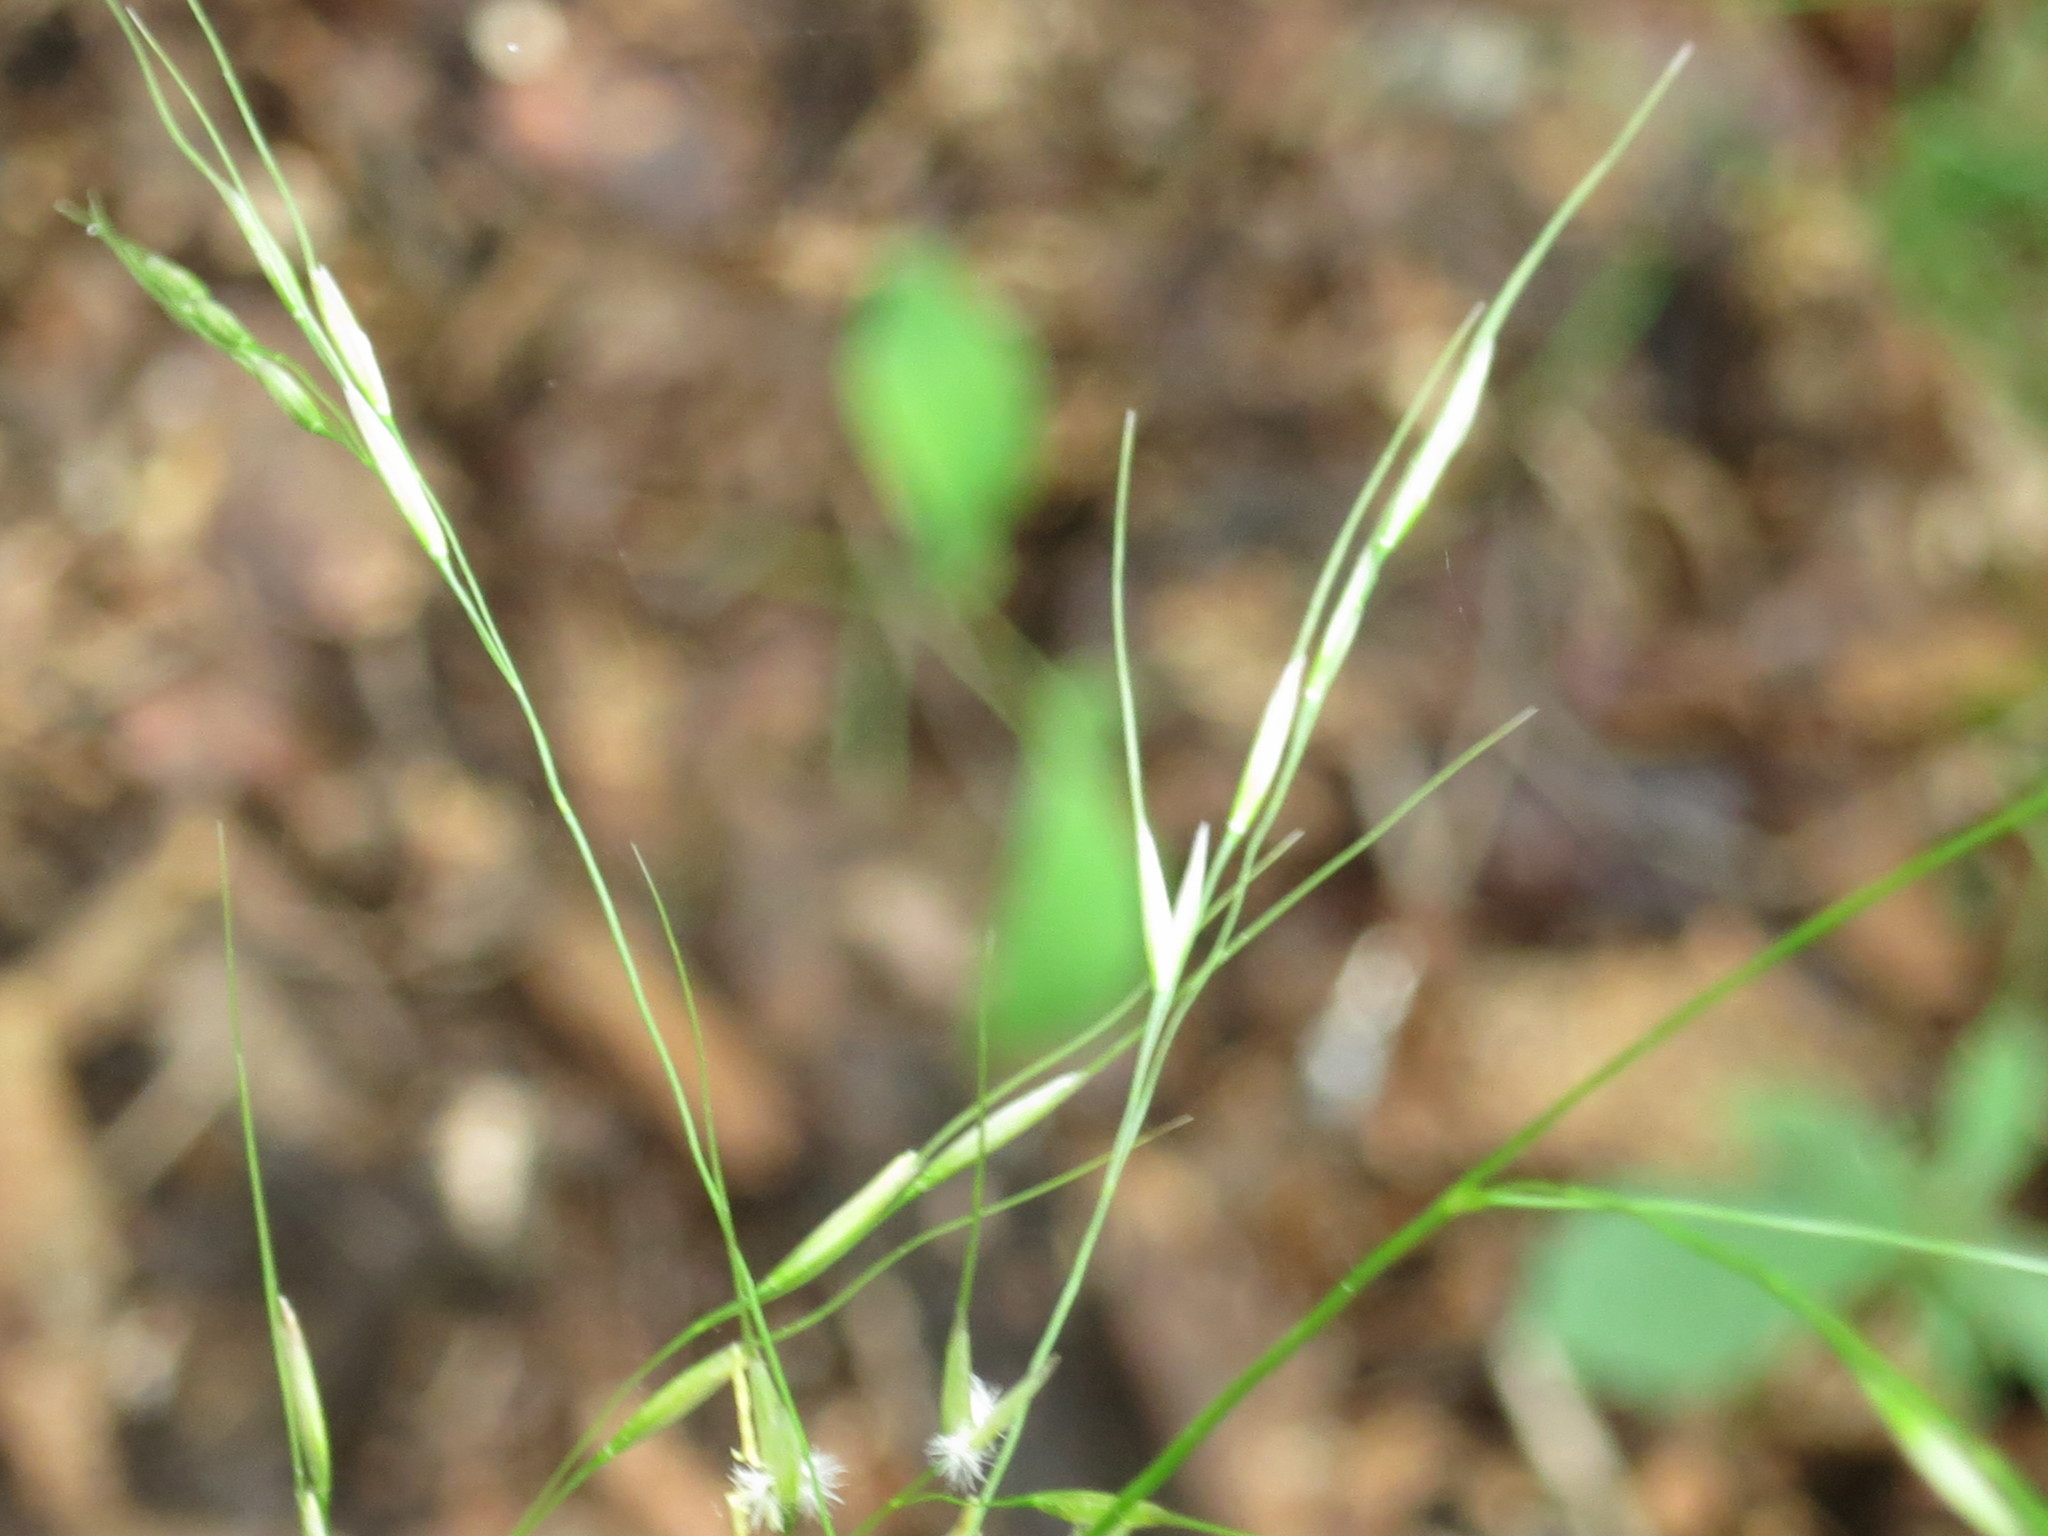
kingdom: Plantae
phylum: Tracheophyta
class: Liliopsida
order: Poales
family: Poaceae
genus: Achnatherum
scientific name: Achnatherum pekinense
